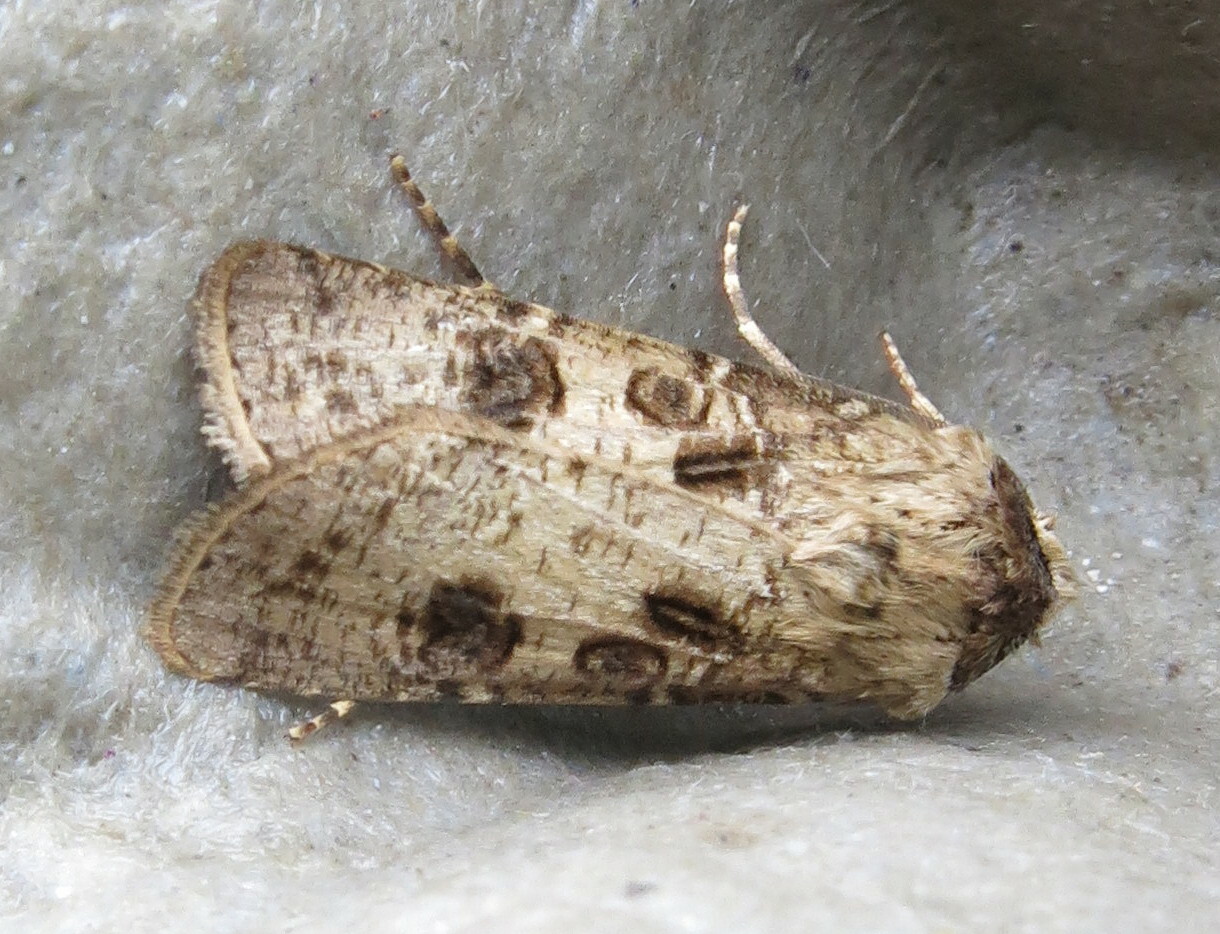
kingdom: Animalia
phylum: Arthropoda
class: Insecta
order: Lepidoptera
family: Noctuidae
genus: Agrotis
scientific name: Agrotis clavis
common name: Heart and club
